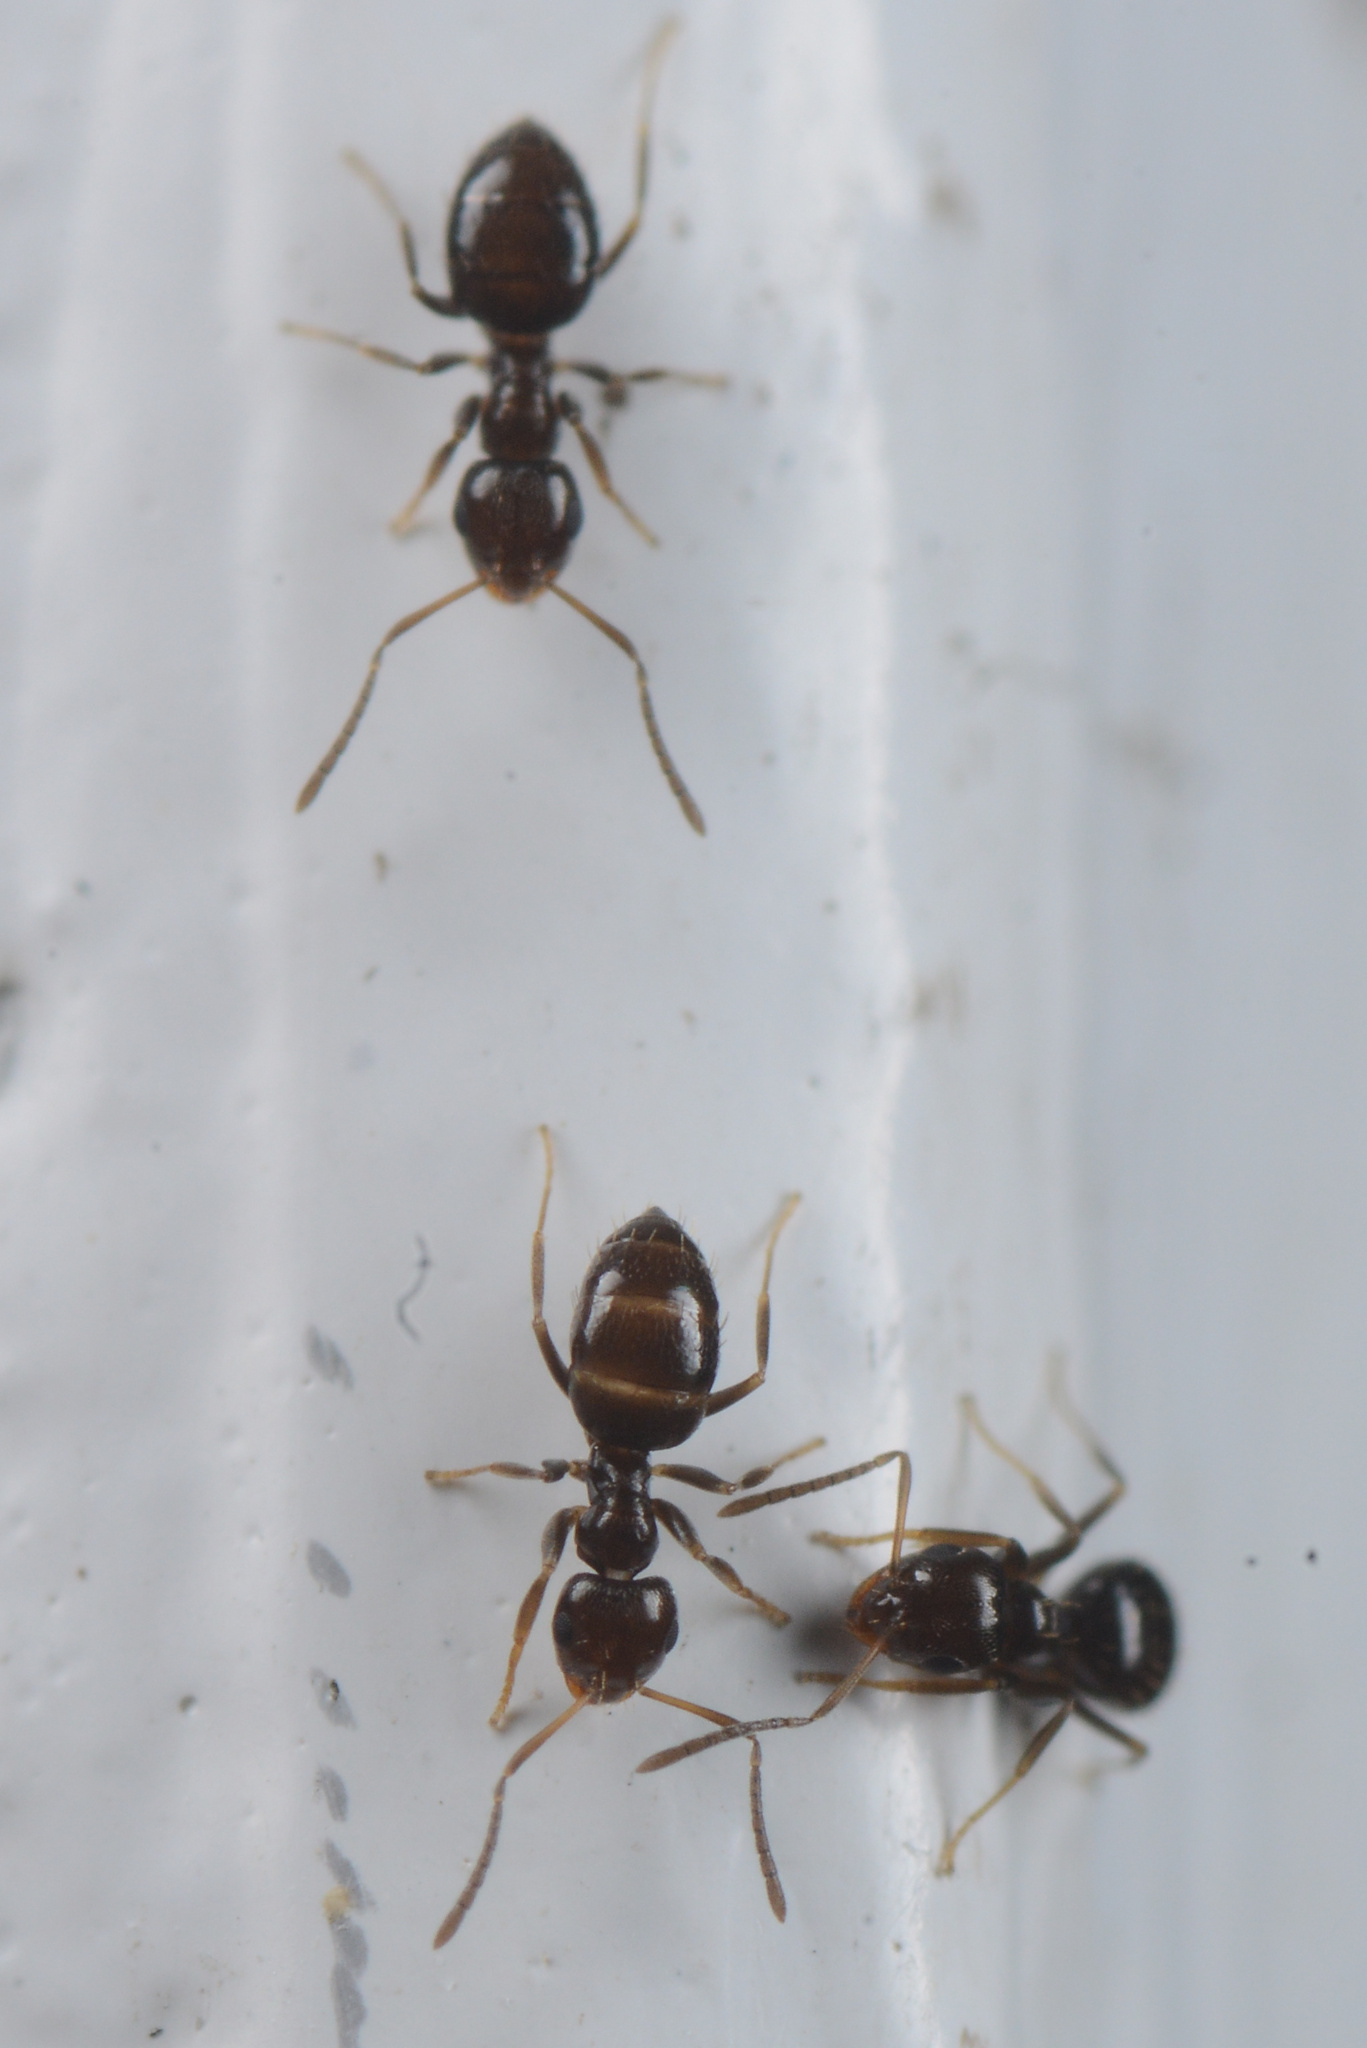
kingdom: Animalia
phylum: Arthropoda
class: Insecta
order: Hymenoptera
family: Formicidae
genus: Brachymyrmex
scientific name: Brachymyrmex patagonicus
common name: Dark rover ant
